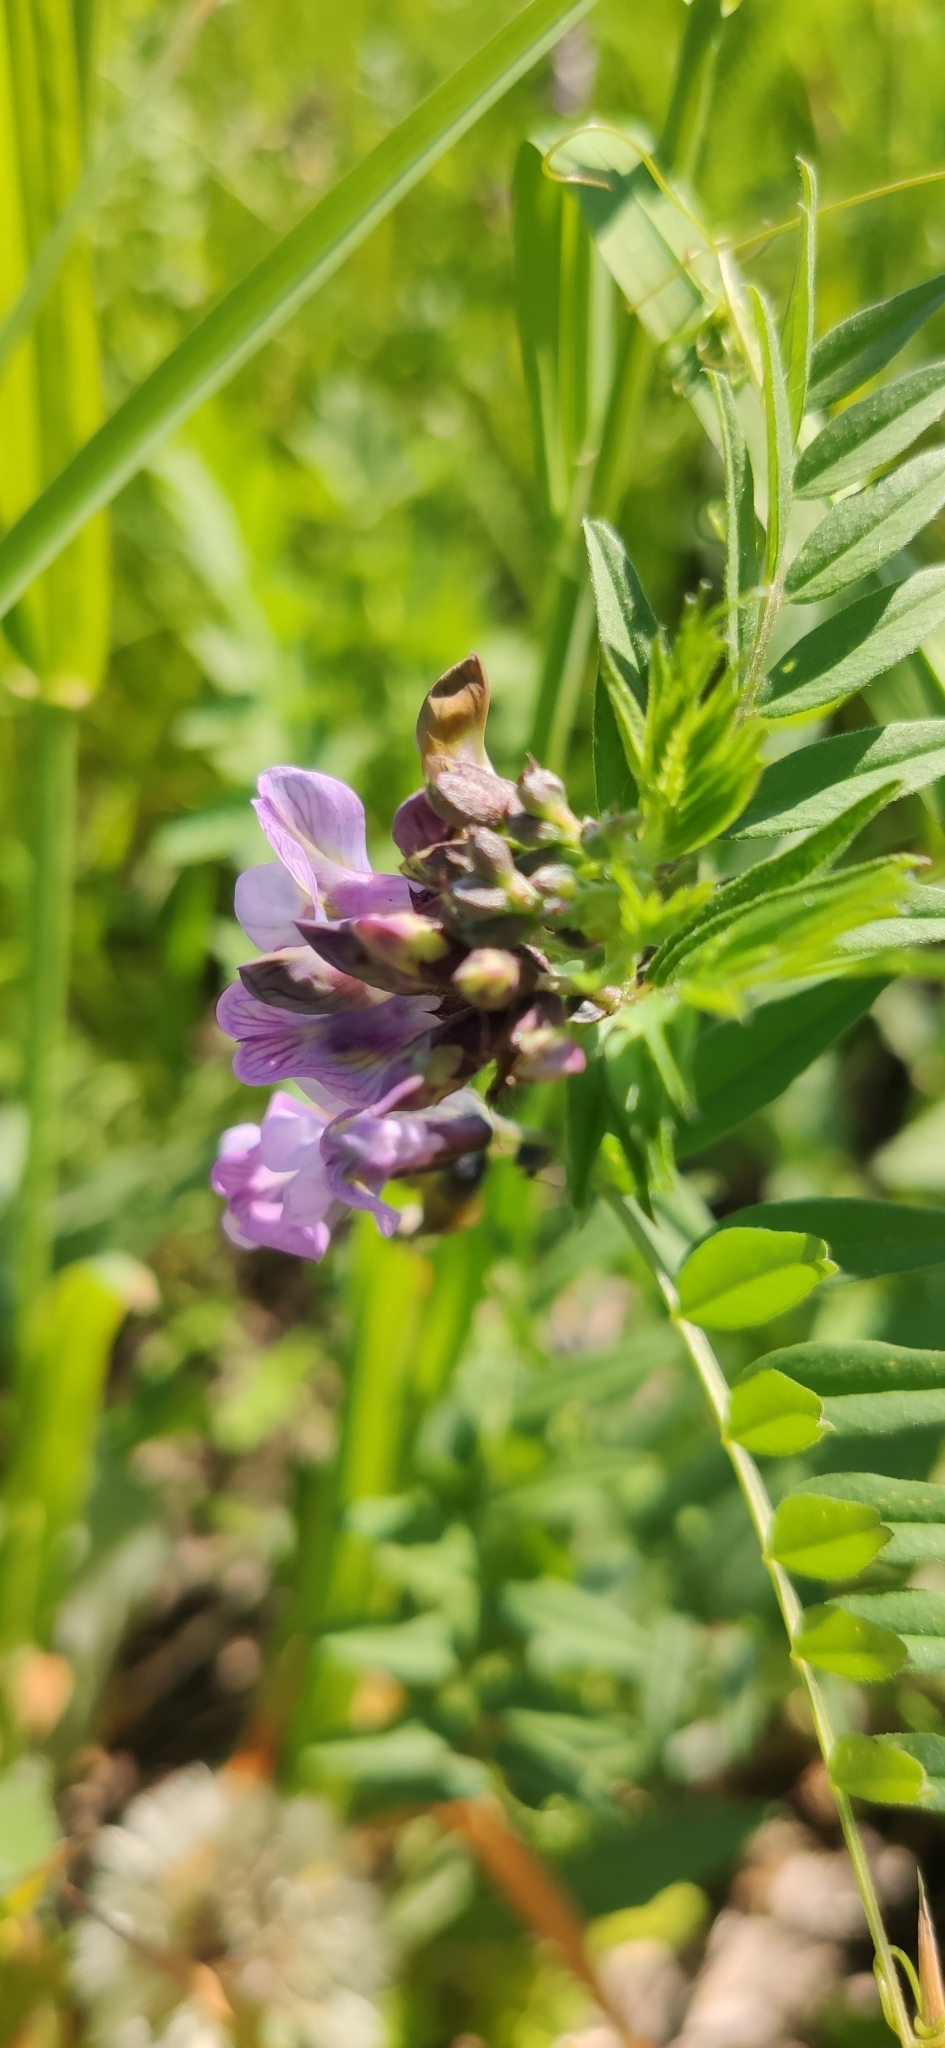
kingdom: Plantae
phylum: Tracheophyta
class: Magnoliopsida
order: Fabales
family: Fabaceae
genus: Vicia
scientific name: Vicia sepium
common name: Bush vetch
